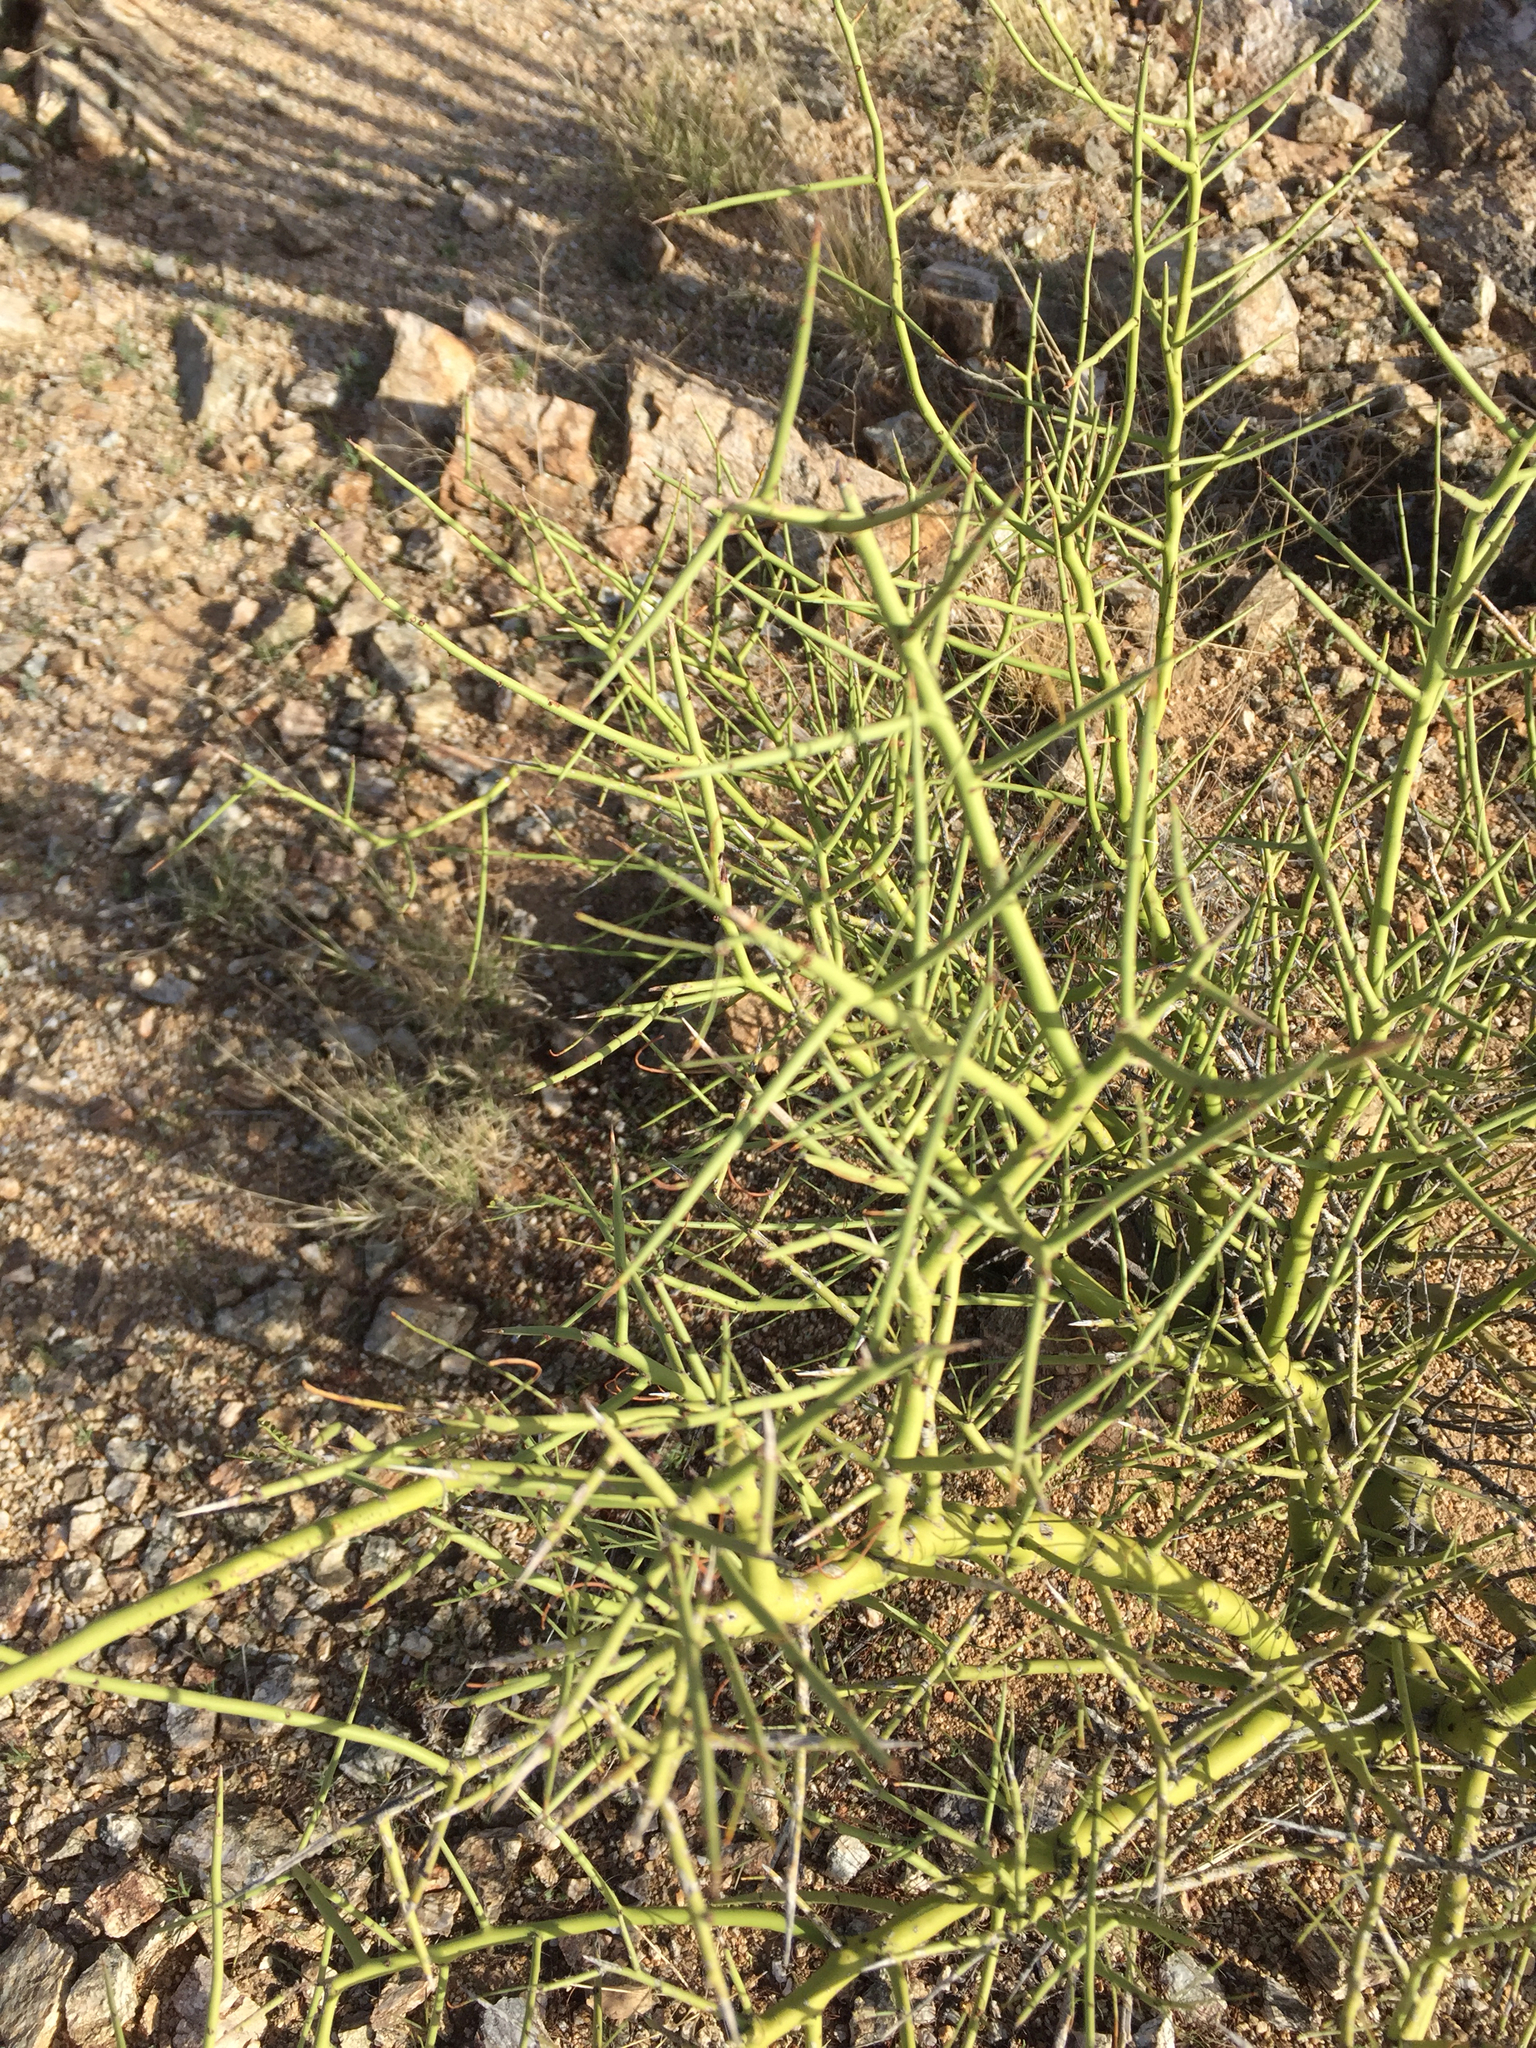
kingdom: Plantae
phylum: Tracheophyta
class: Magnoliopsida
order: Fabales
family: Fabaceae
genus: Parkinsonia
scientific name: Parkinsonia microphylla
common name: Yellow paloverde
